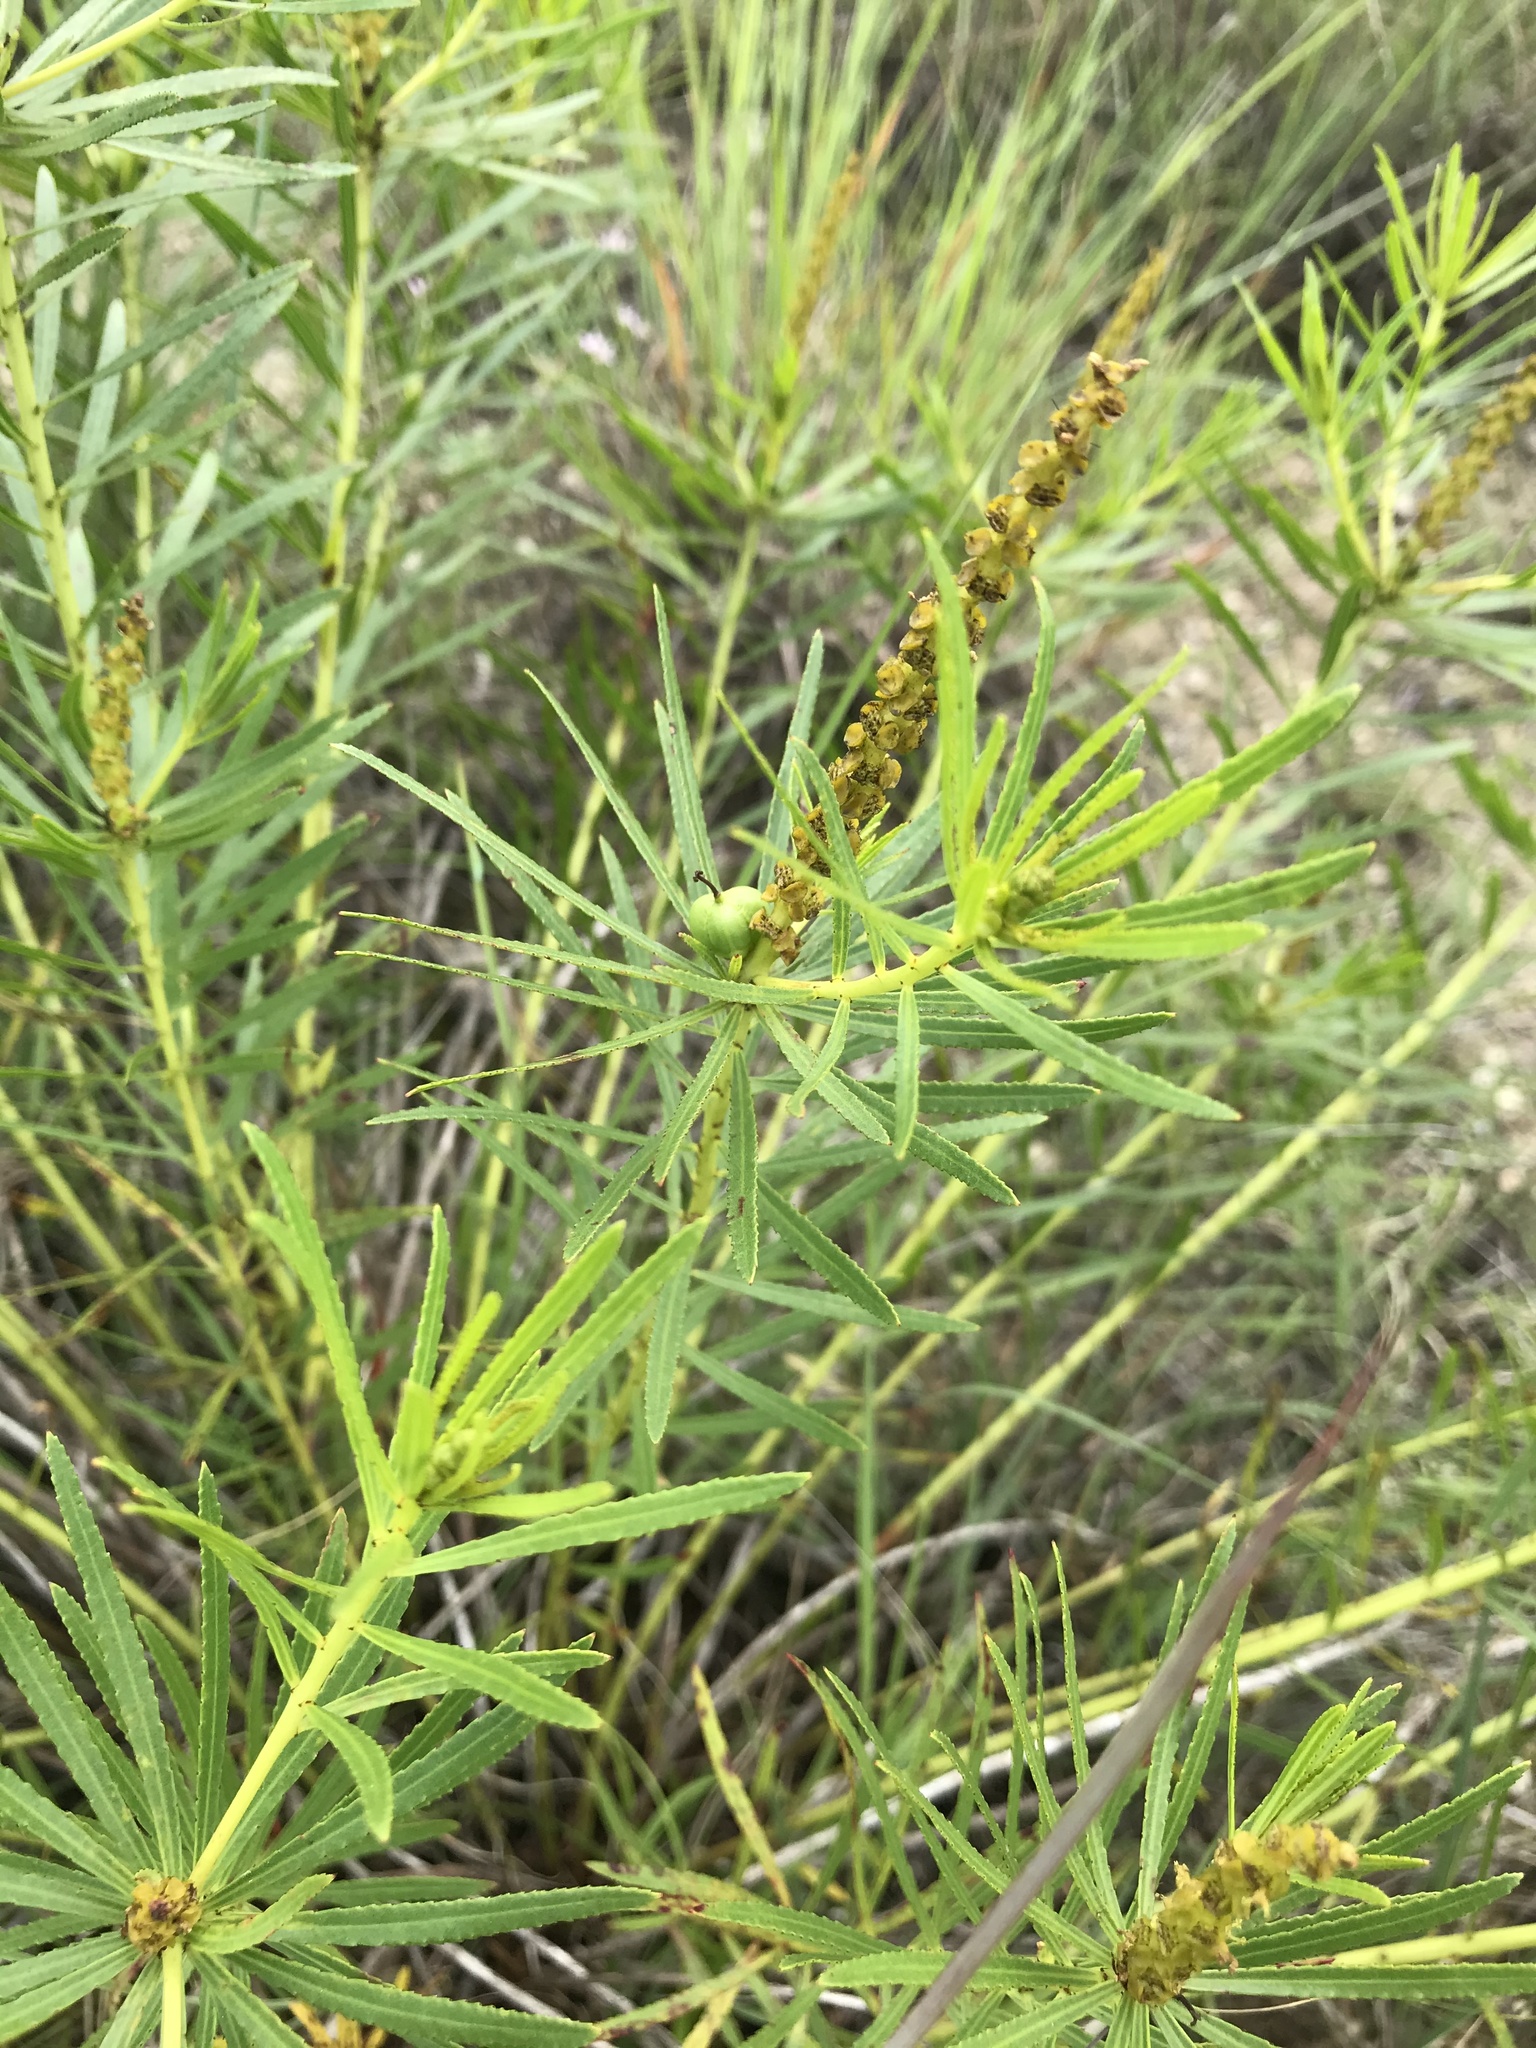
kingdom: Plantae
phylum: Tracheophyta
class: Magnoliopsida
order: Malpighiales
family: Euphorbiaceae
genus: Stillingia
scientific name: Stillingia texana
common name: Texas stillingia
